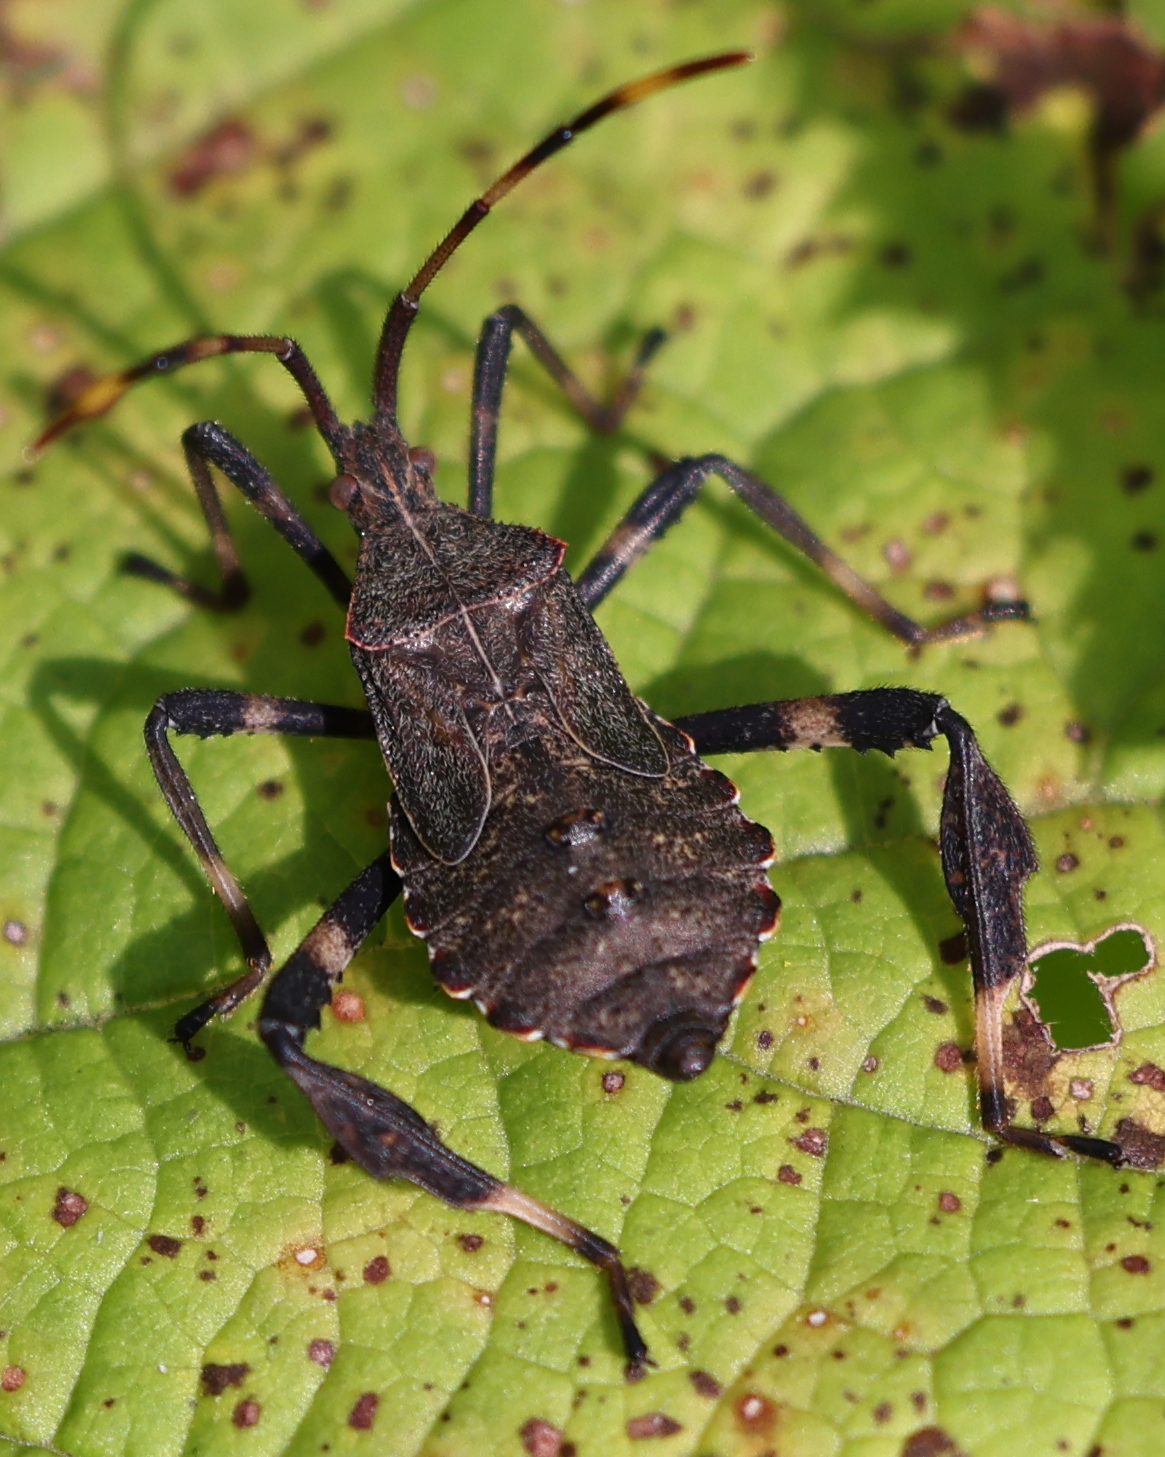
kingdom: Animalia
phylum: Arthropoda
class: Insecta
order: Hemiptera
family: Coreidae
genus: Acanthocephala
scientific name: Acanthocephala terminalis
